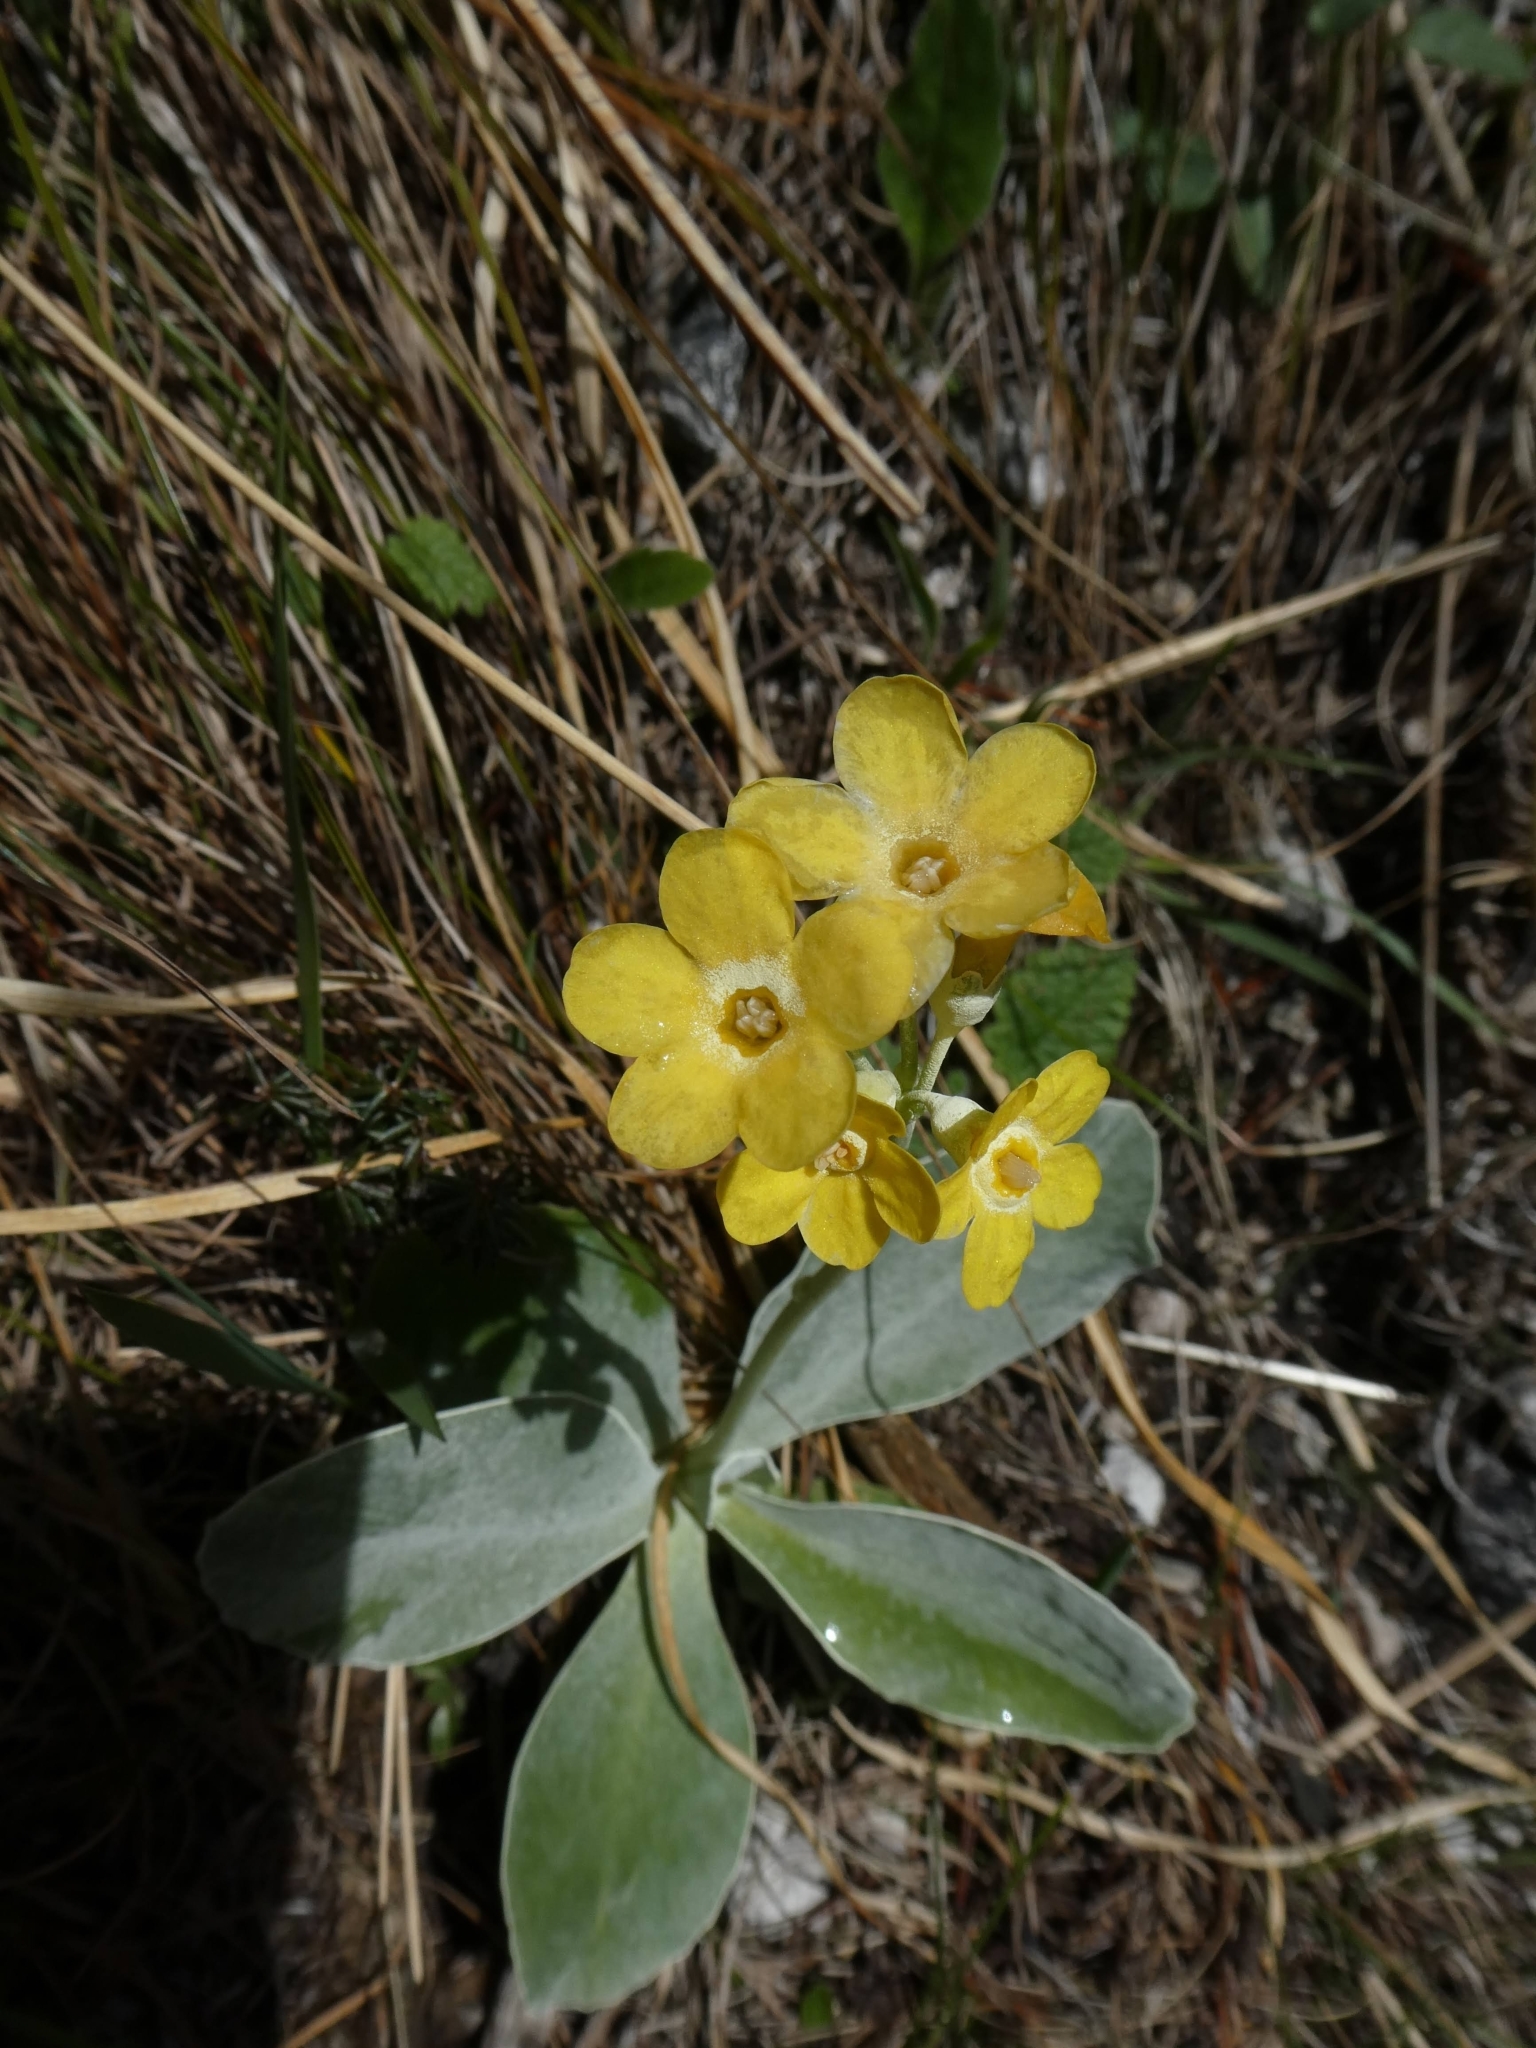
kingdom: Plantae
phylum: Tracheophyta
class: Magnoliopsida
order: Ericales
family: Primulaceae
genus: Primula
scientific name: Primula auricula
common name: Auricula
